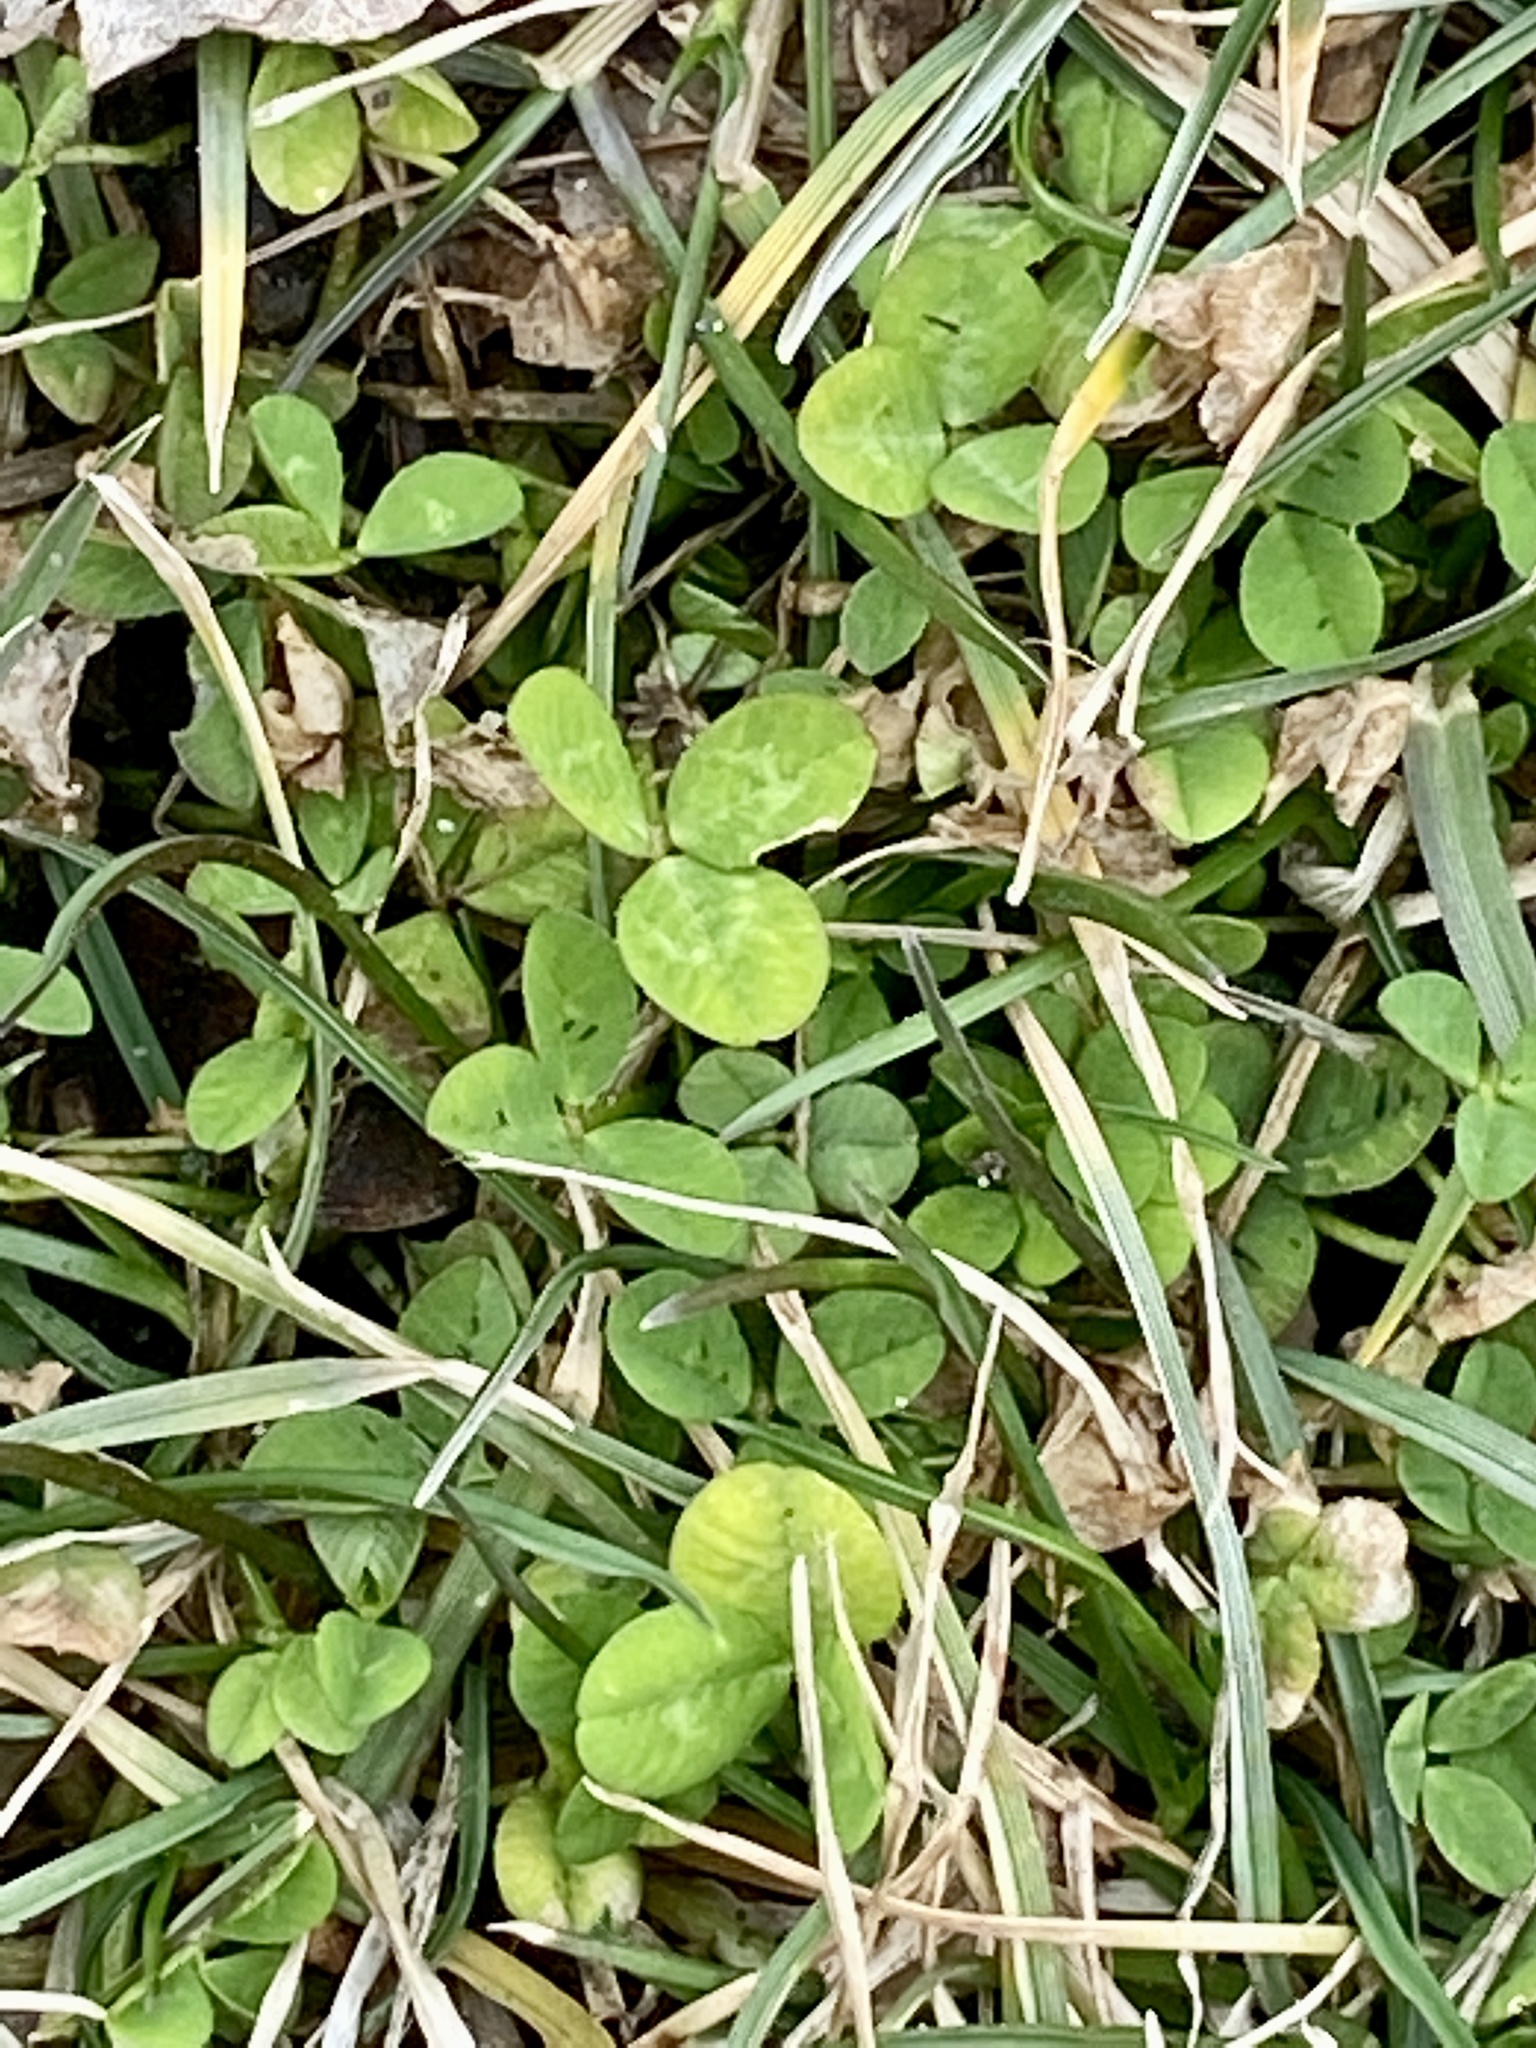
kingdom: Plantae
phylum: Tracheophyta
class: Magnoliopsida
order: Fabales
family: Fabaceae
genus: Trifolium
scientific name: Trifolium repens
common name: White clover
